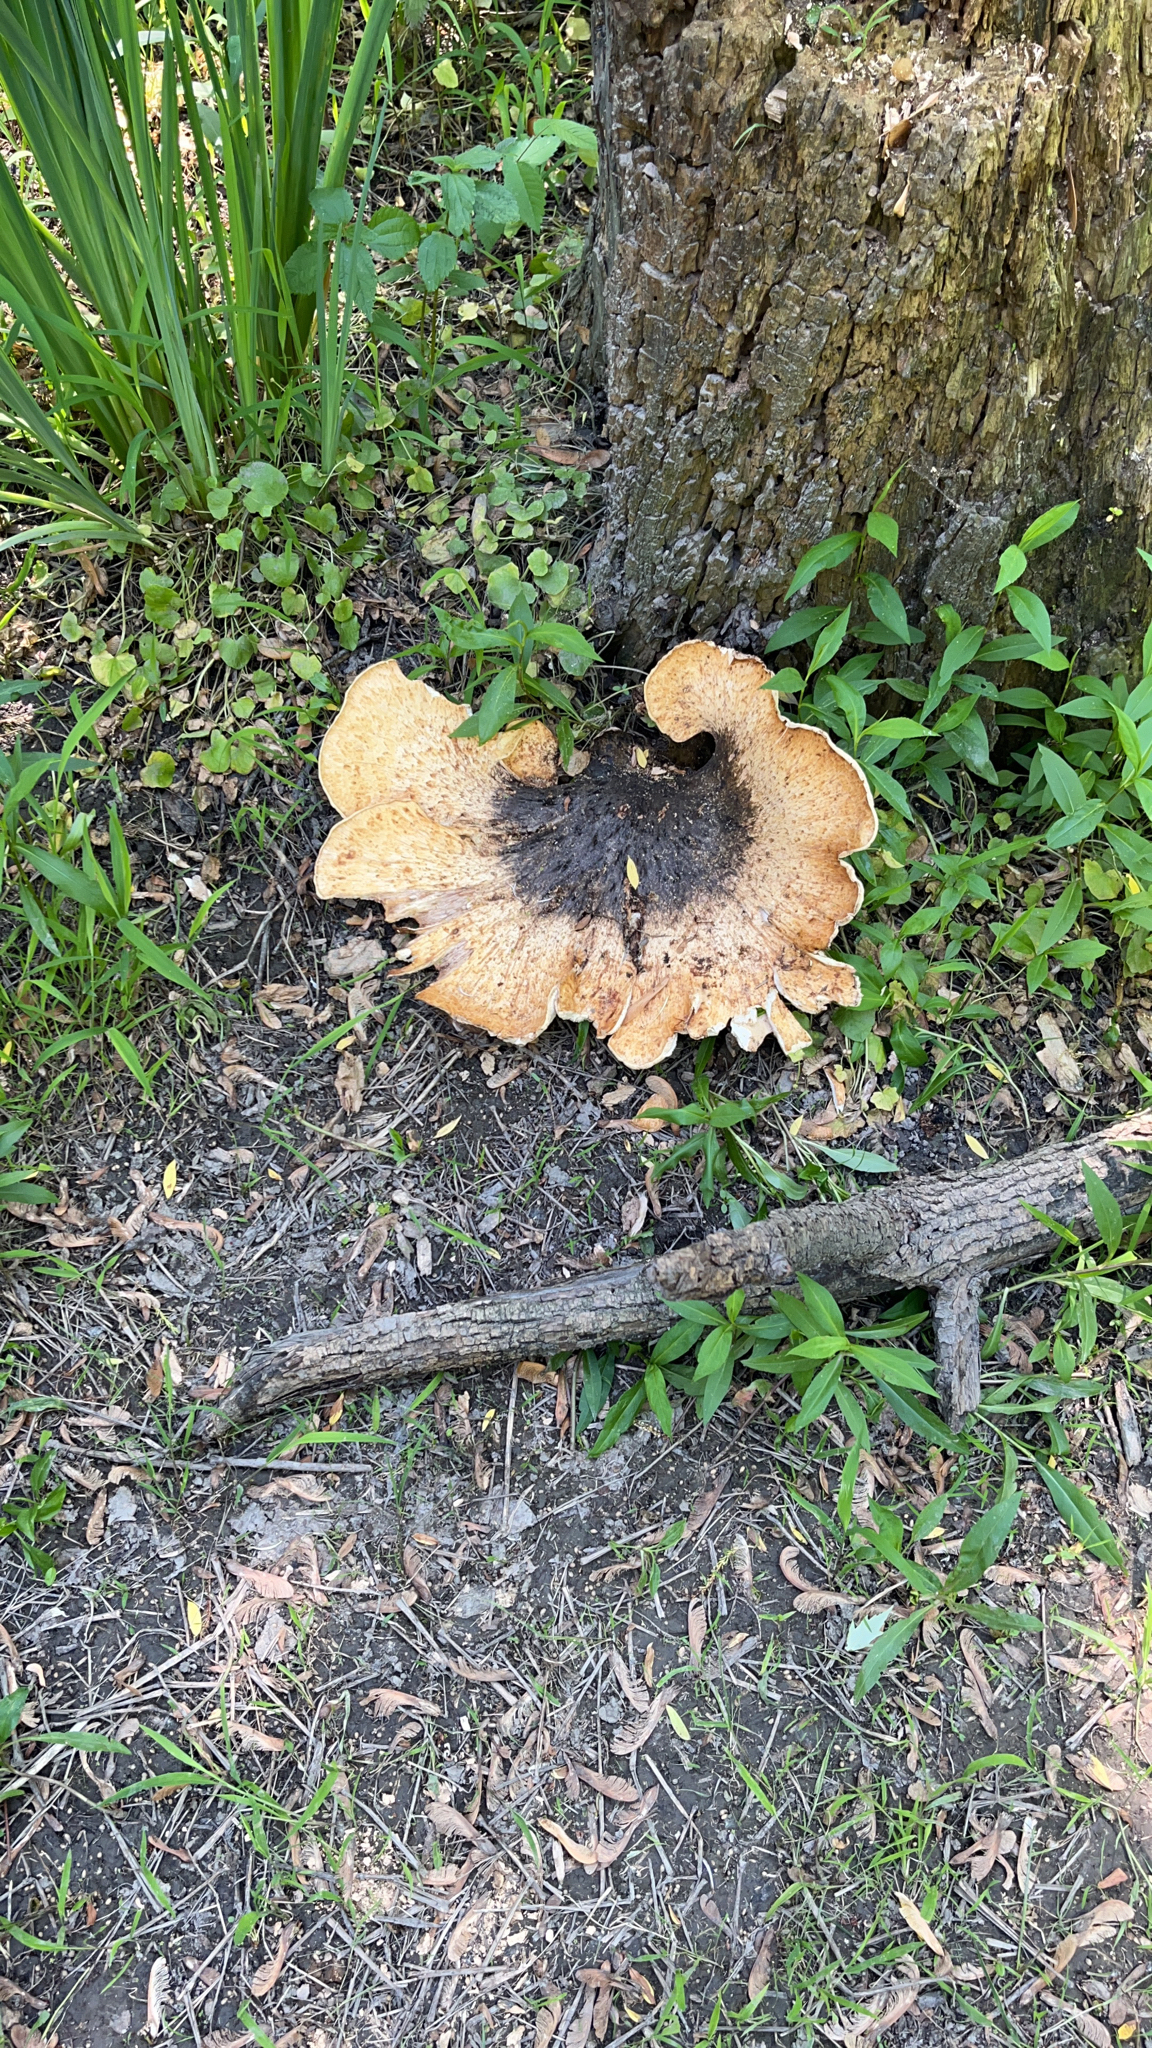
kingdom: Fungi
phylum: Basidiomycota
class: Agaricomycetes
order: Polyporales
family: Polyporaceae
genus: Cerioporus
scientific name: Cerioporus squamosus
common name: Dryad's saddle
